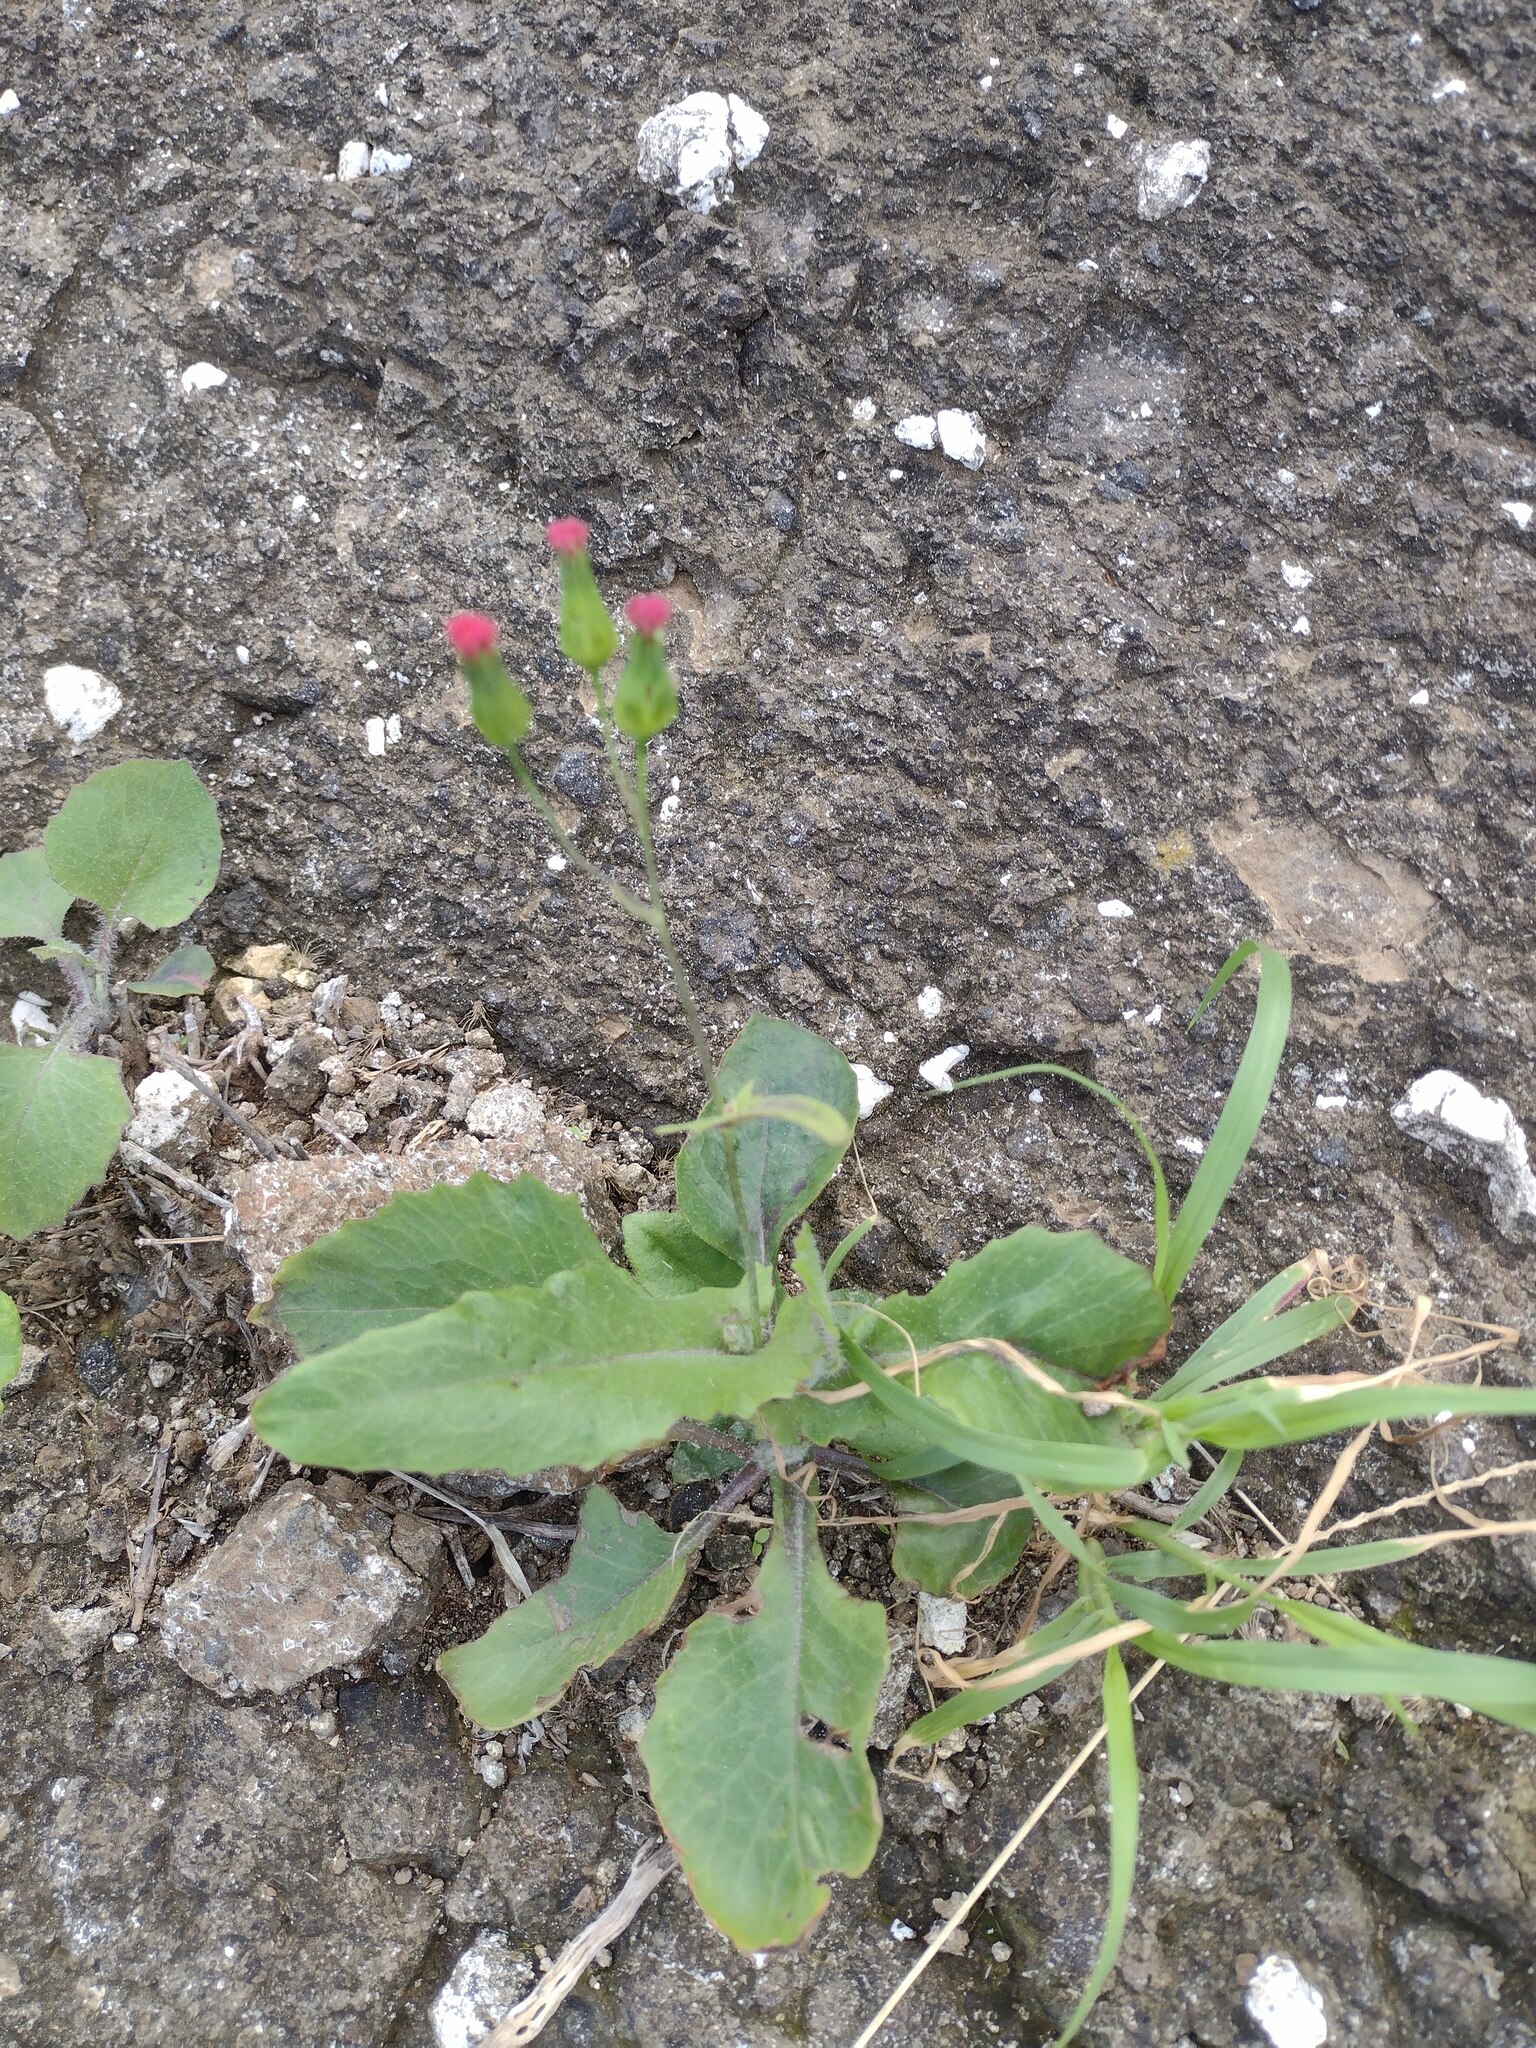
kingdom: Plantae
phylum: Tracheophyta
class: Magnoliopsida
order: Asterales
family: Asteraceae
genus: Emilia
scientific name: Emilia fosbergii
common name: Florida tasselflower
